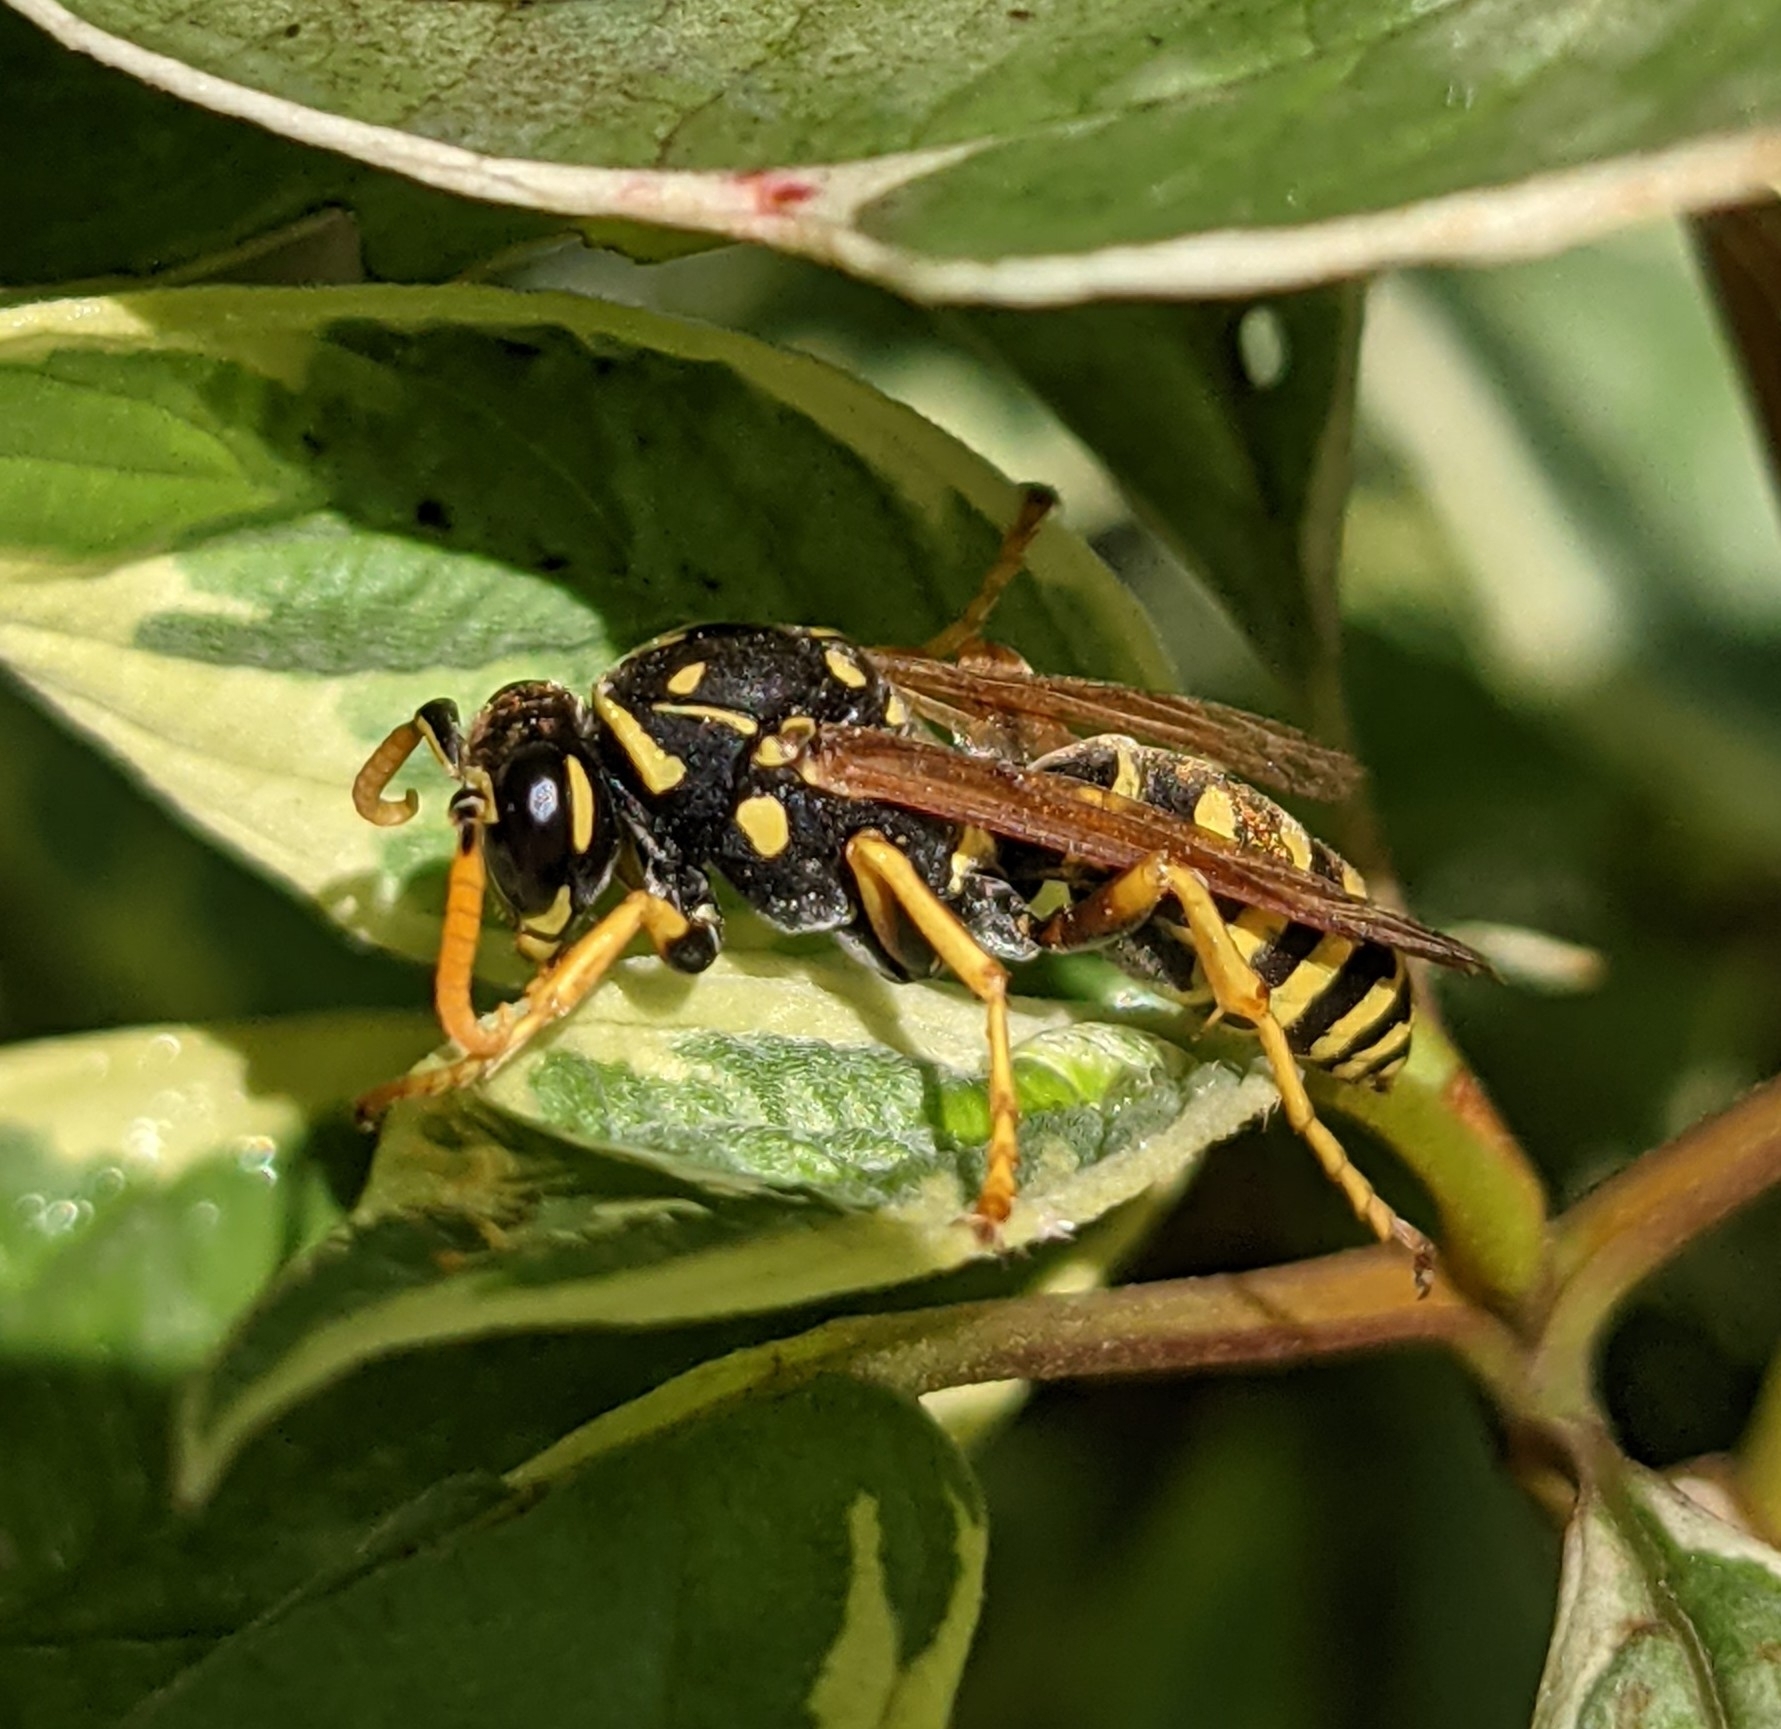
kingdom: Animalia
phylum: Arthropoda
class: Insecta
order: Hymenoptera
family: Eumenidae
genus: Polistes
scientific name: Polistes dominula
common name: Paper wasp
